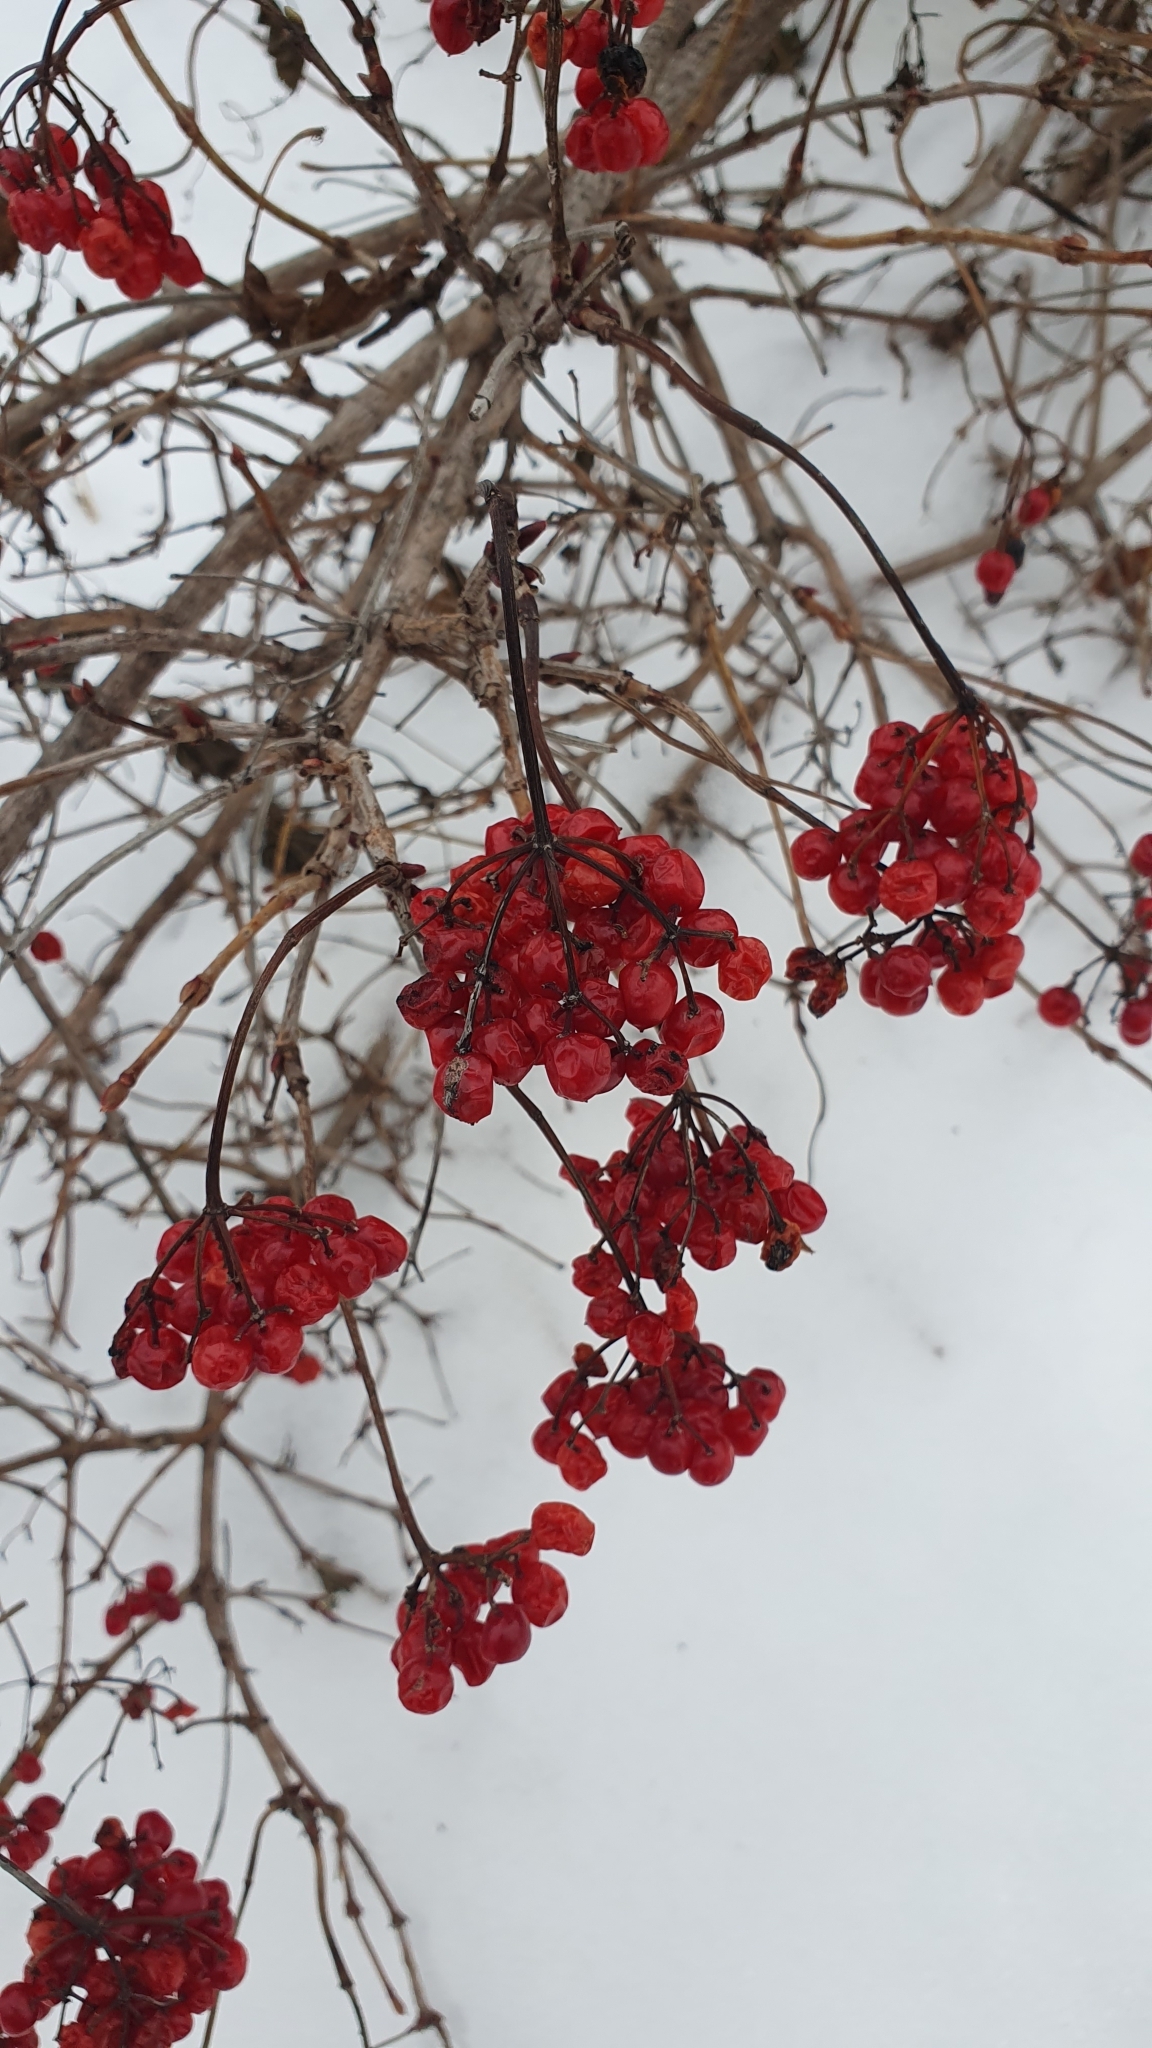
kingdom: Plantae
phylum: Tracheophyta
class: Magnoliopsida
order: Dipsacales
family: Viburnaceae
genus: Viburnum
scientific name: Viburnum opulus
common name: Guelder-rose
